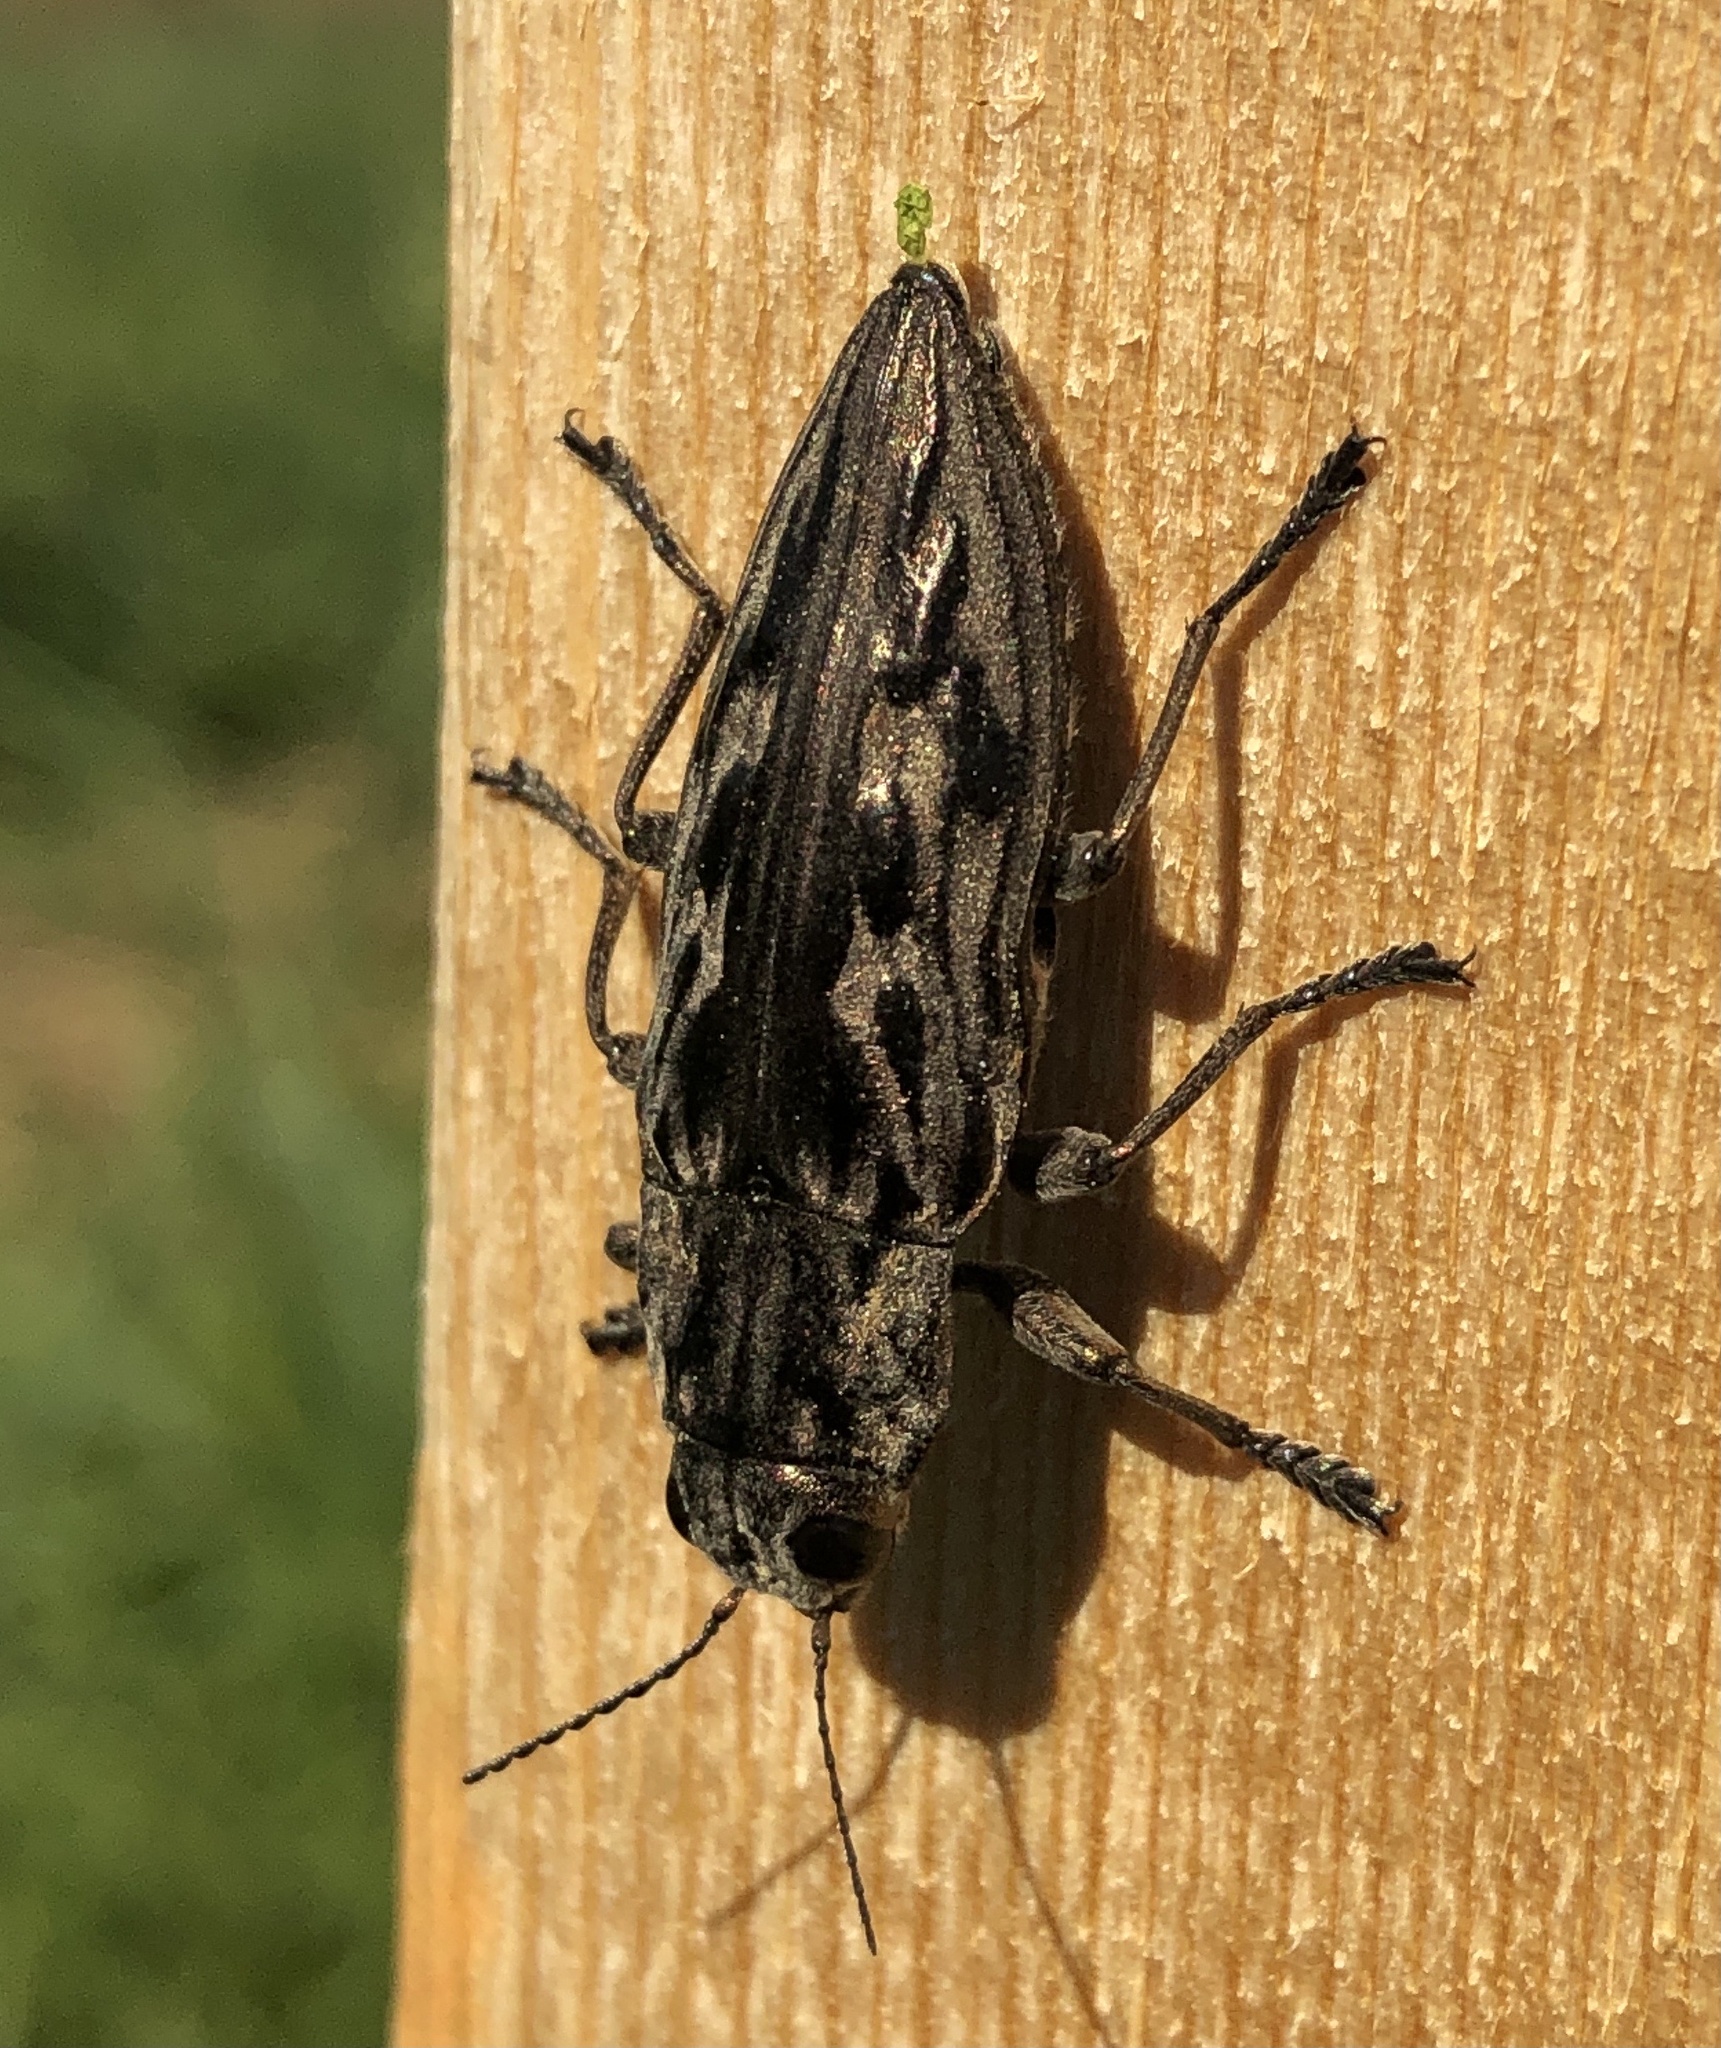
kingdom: Animalia
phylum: Arthropoda
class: Insecta
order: Coleoptera
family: Buprestidae
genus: Chalcophora
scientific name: Chalcophora virginiensis
